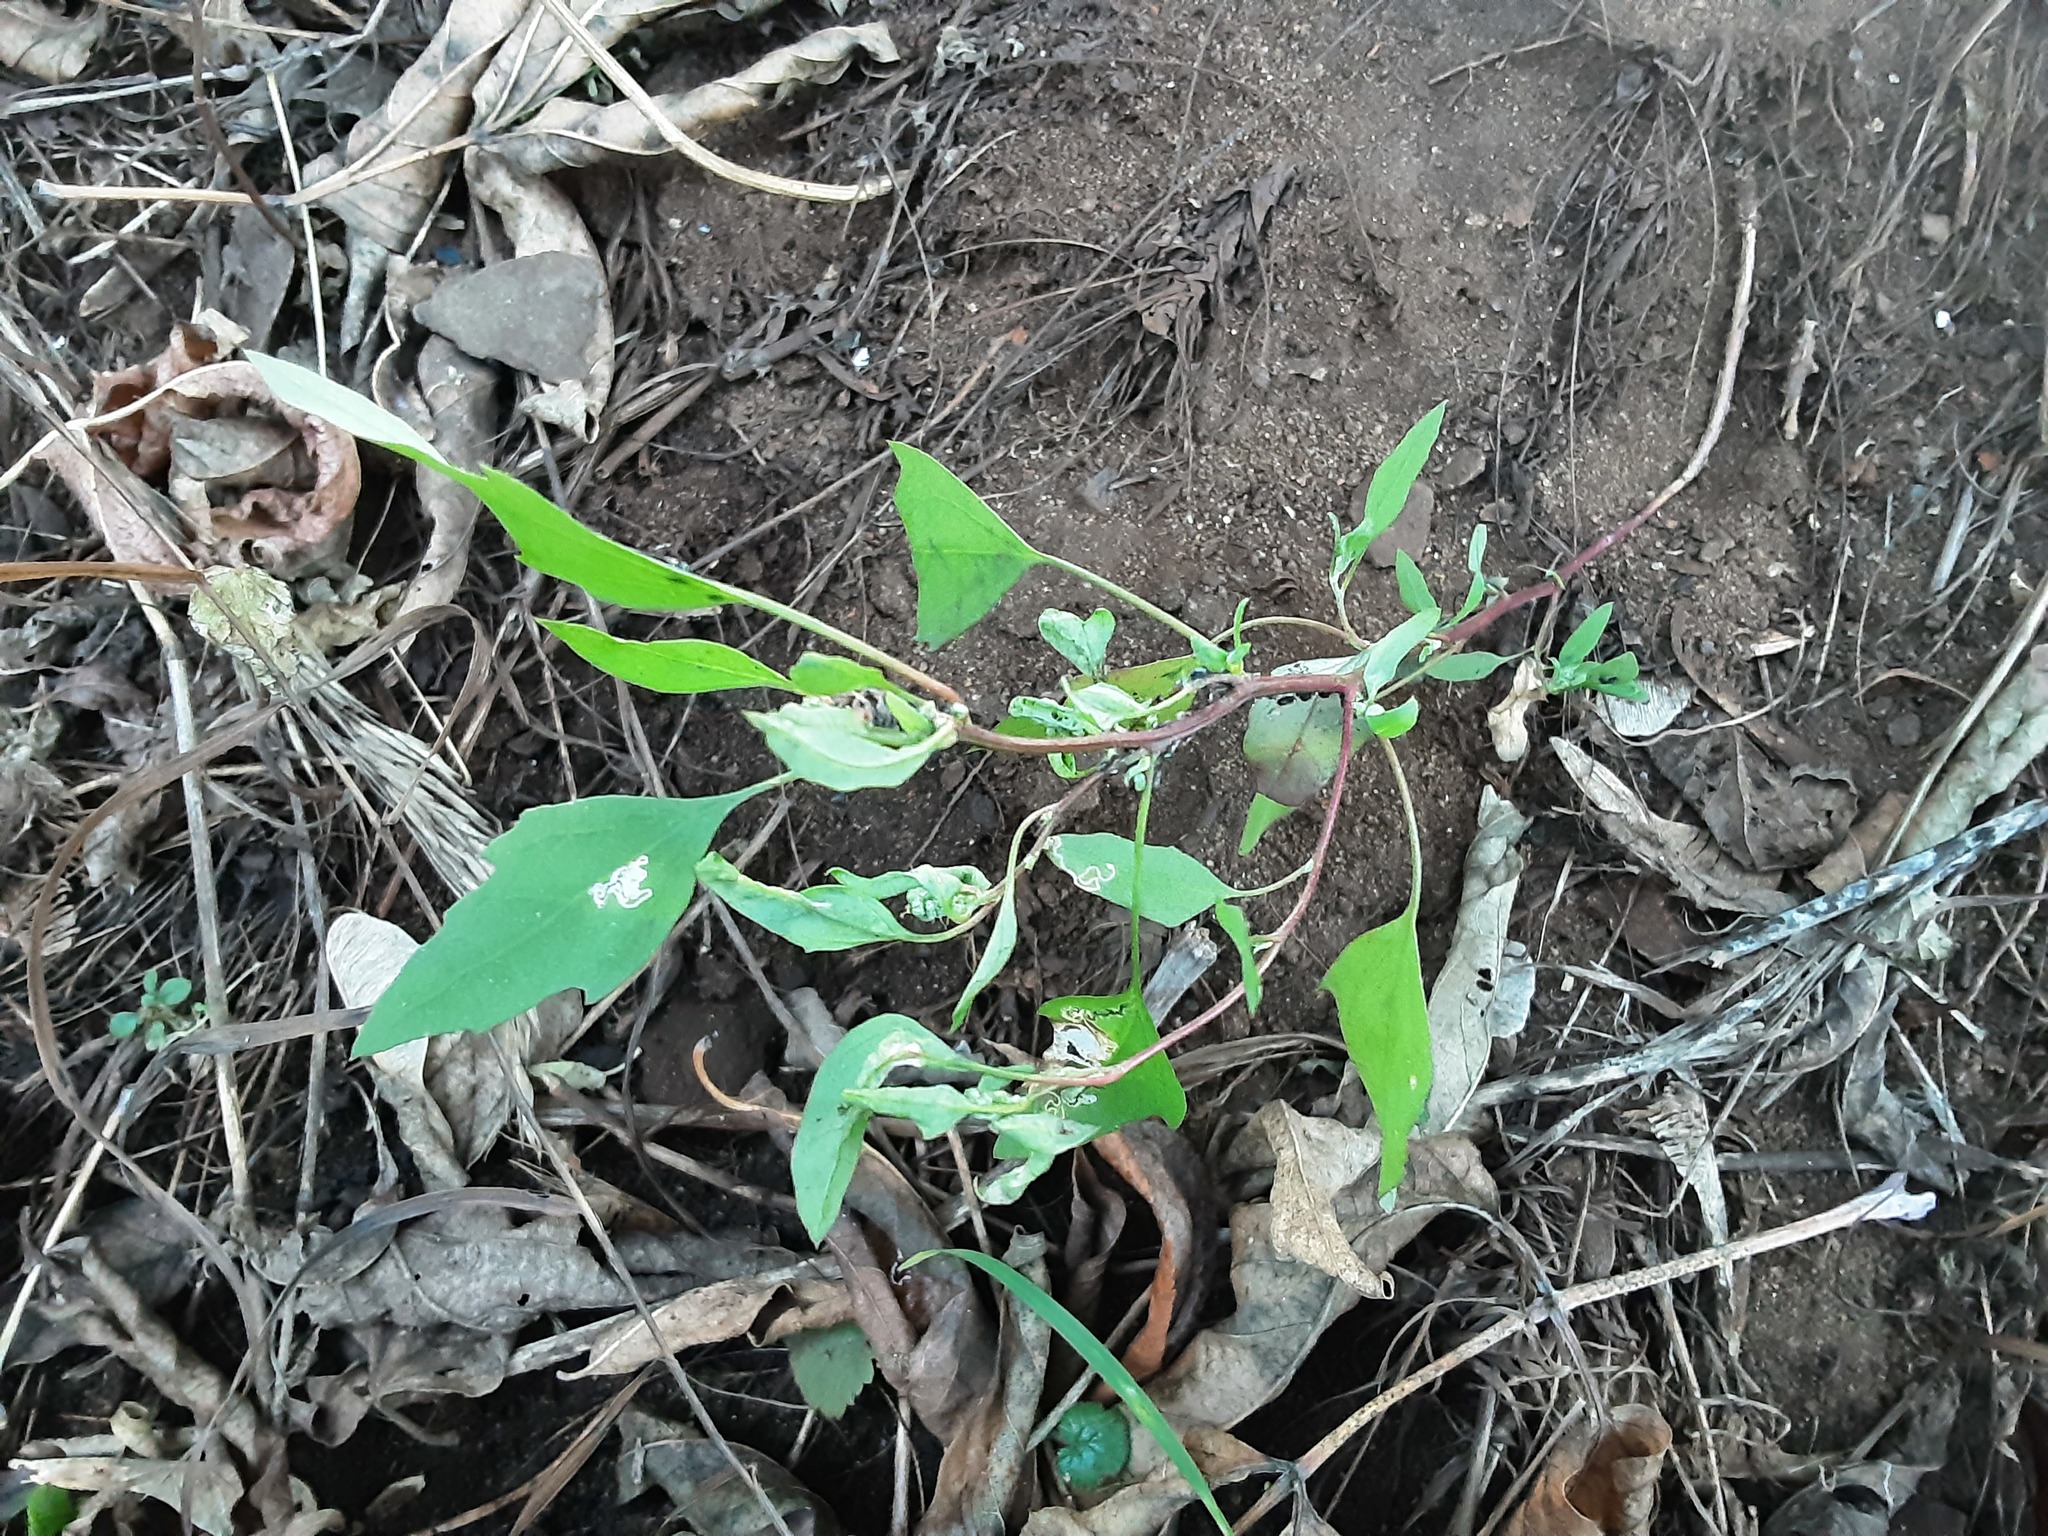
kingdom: Plantae
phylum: Tracheophyta
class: Magnoliopsida
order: Caryophyllales
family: Amaranthaceae
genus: Chenopodium
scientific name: Chenopodium album
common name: Fat-hen
